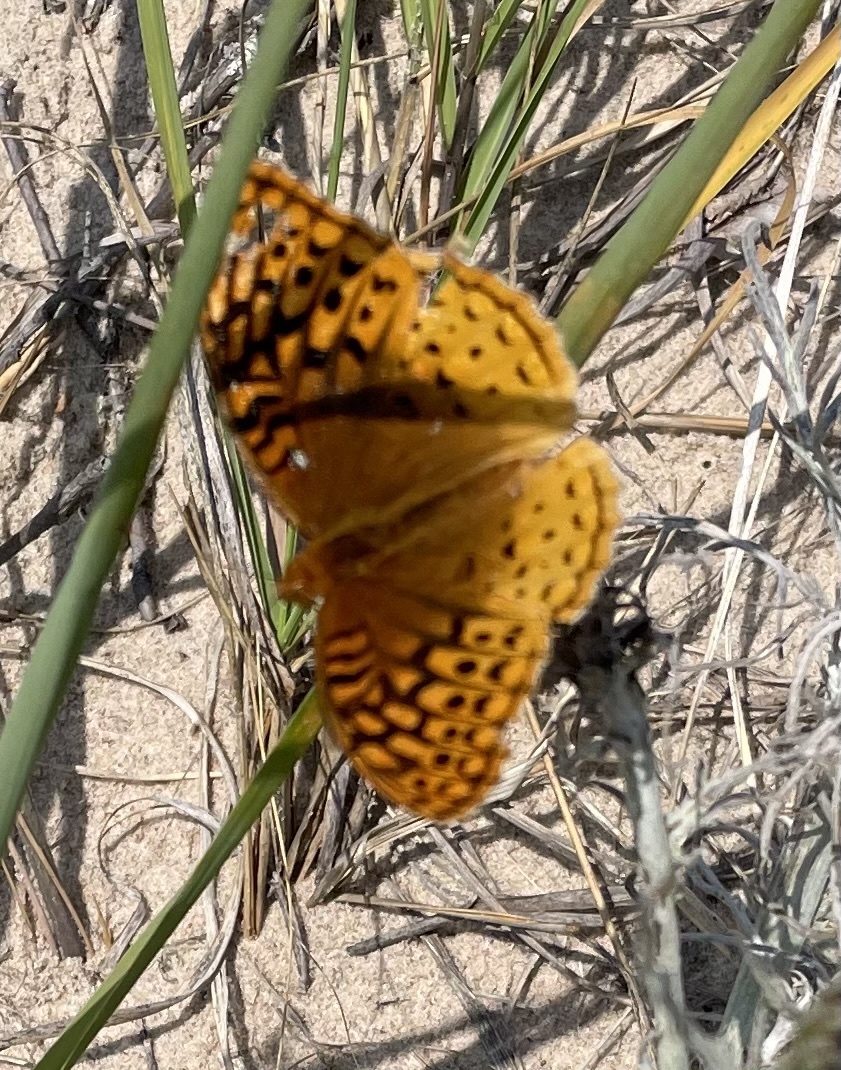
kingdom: Animalia
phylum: Arthropoda
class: Insecta
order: Lepidoptera
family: Nymphalidae
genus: Speyeria
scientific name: Speyeria cybele
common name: Great spangled fritillary
